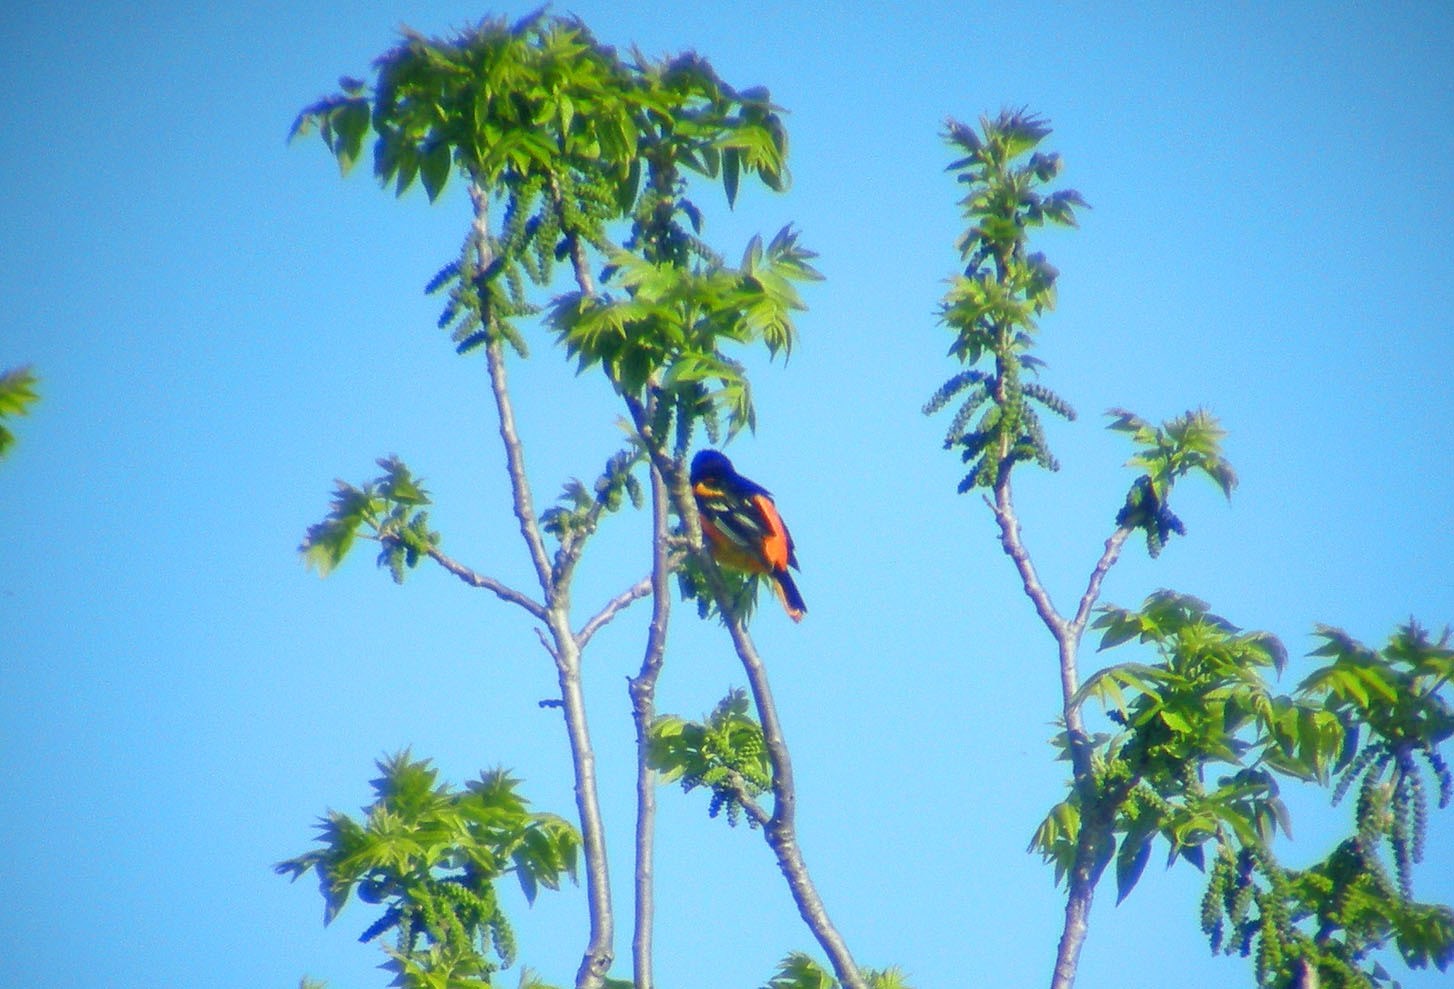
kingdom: Animalia
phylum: Chordata
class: Aves
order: Passeriformes
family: Icteridae
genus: Icterus
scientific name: Icterus galbula
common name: Baltimore oriole
